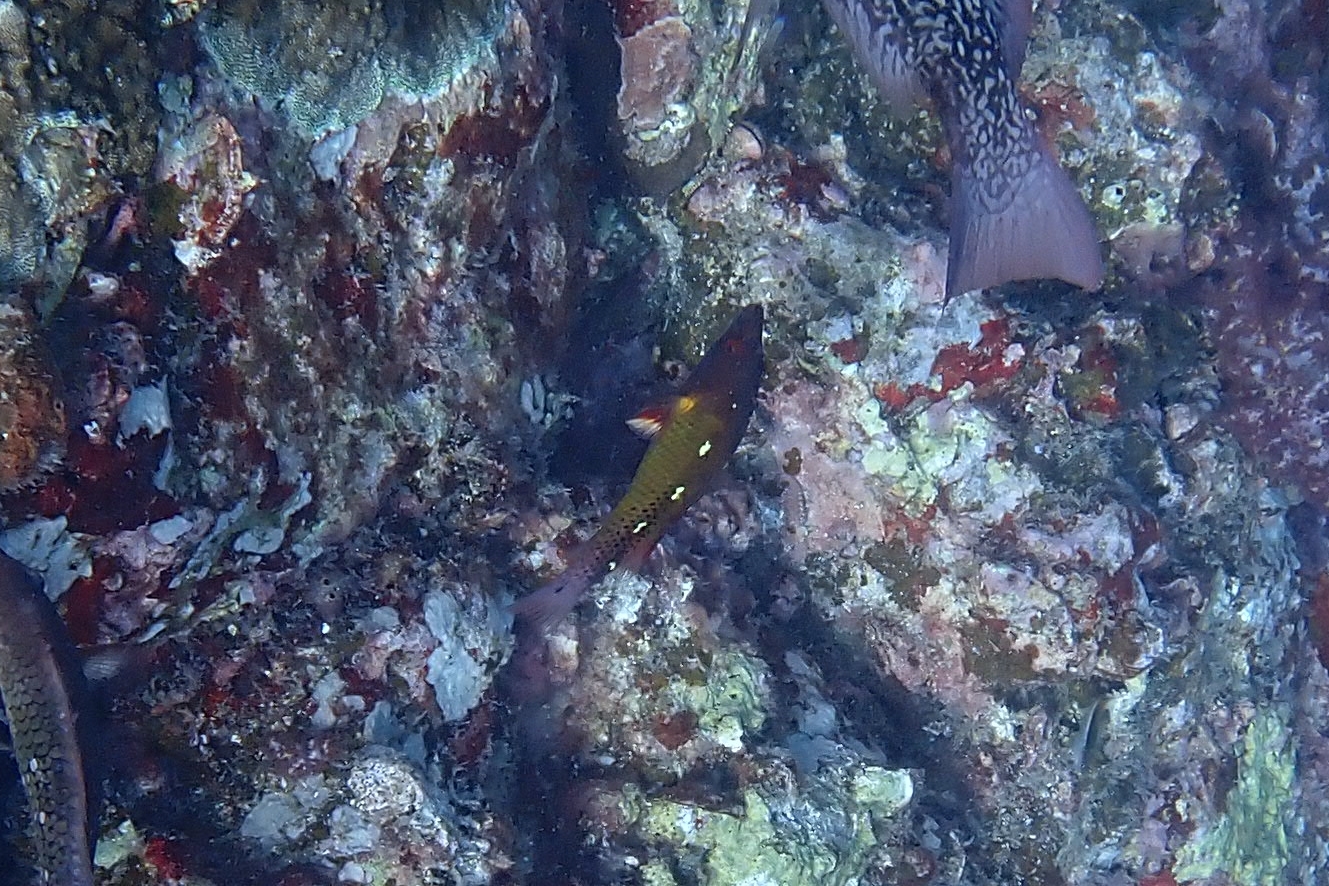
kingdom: Animalia
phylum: Chordata
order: Perciformes
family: Labridae
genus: Bodianus
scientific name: Bodianus diana
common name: Diana's hogfish
